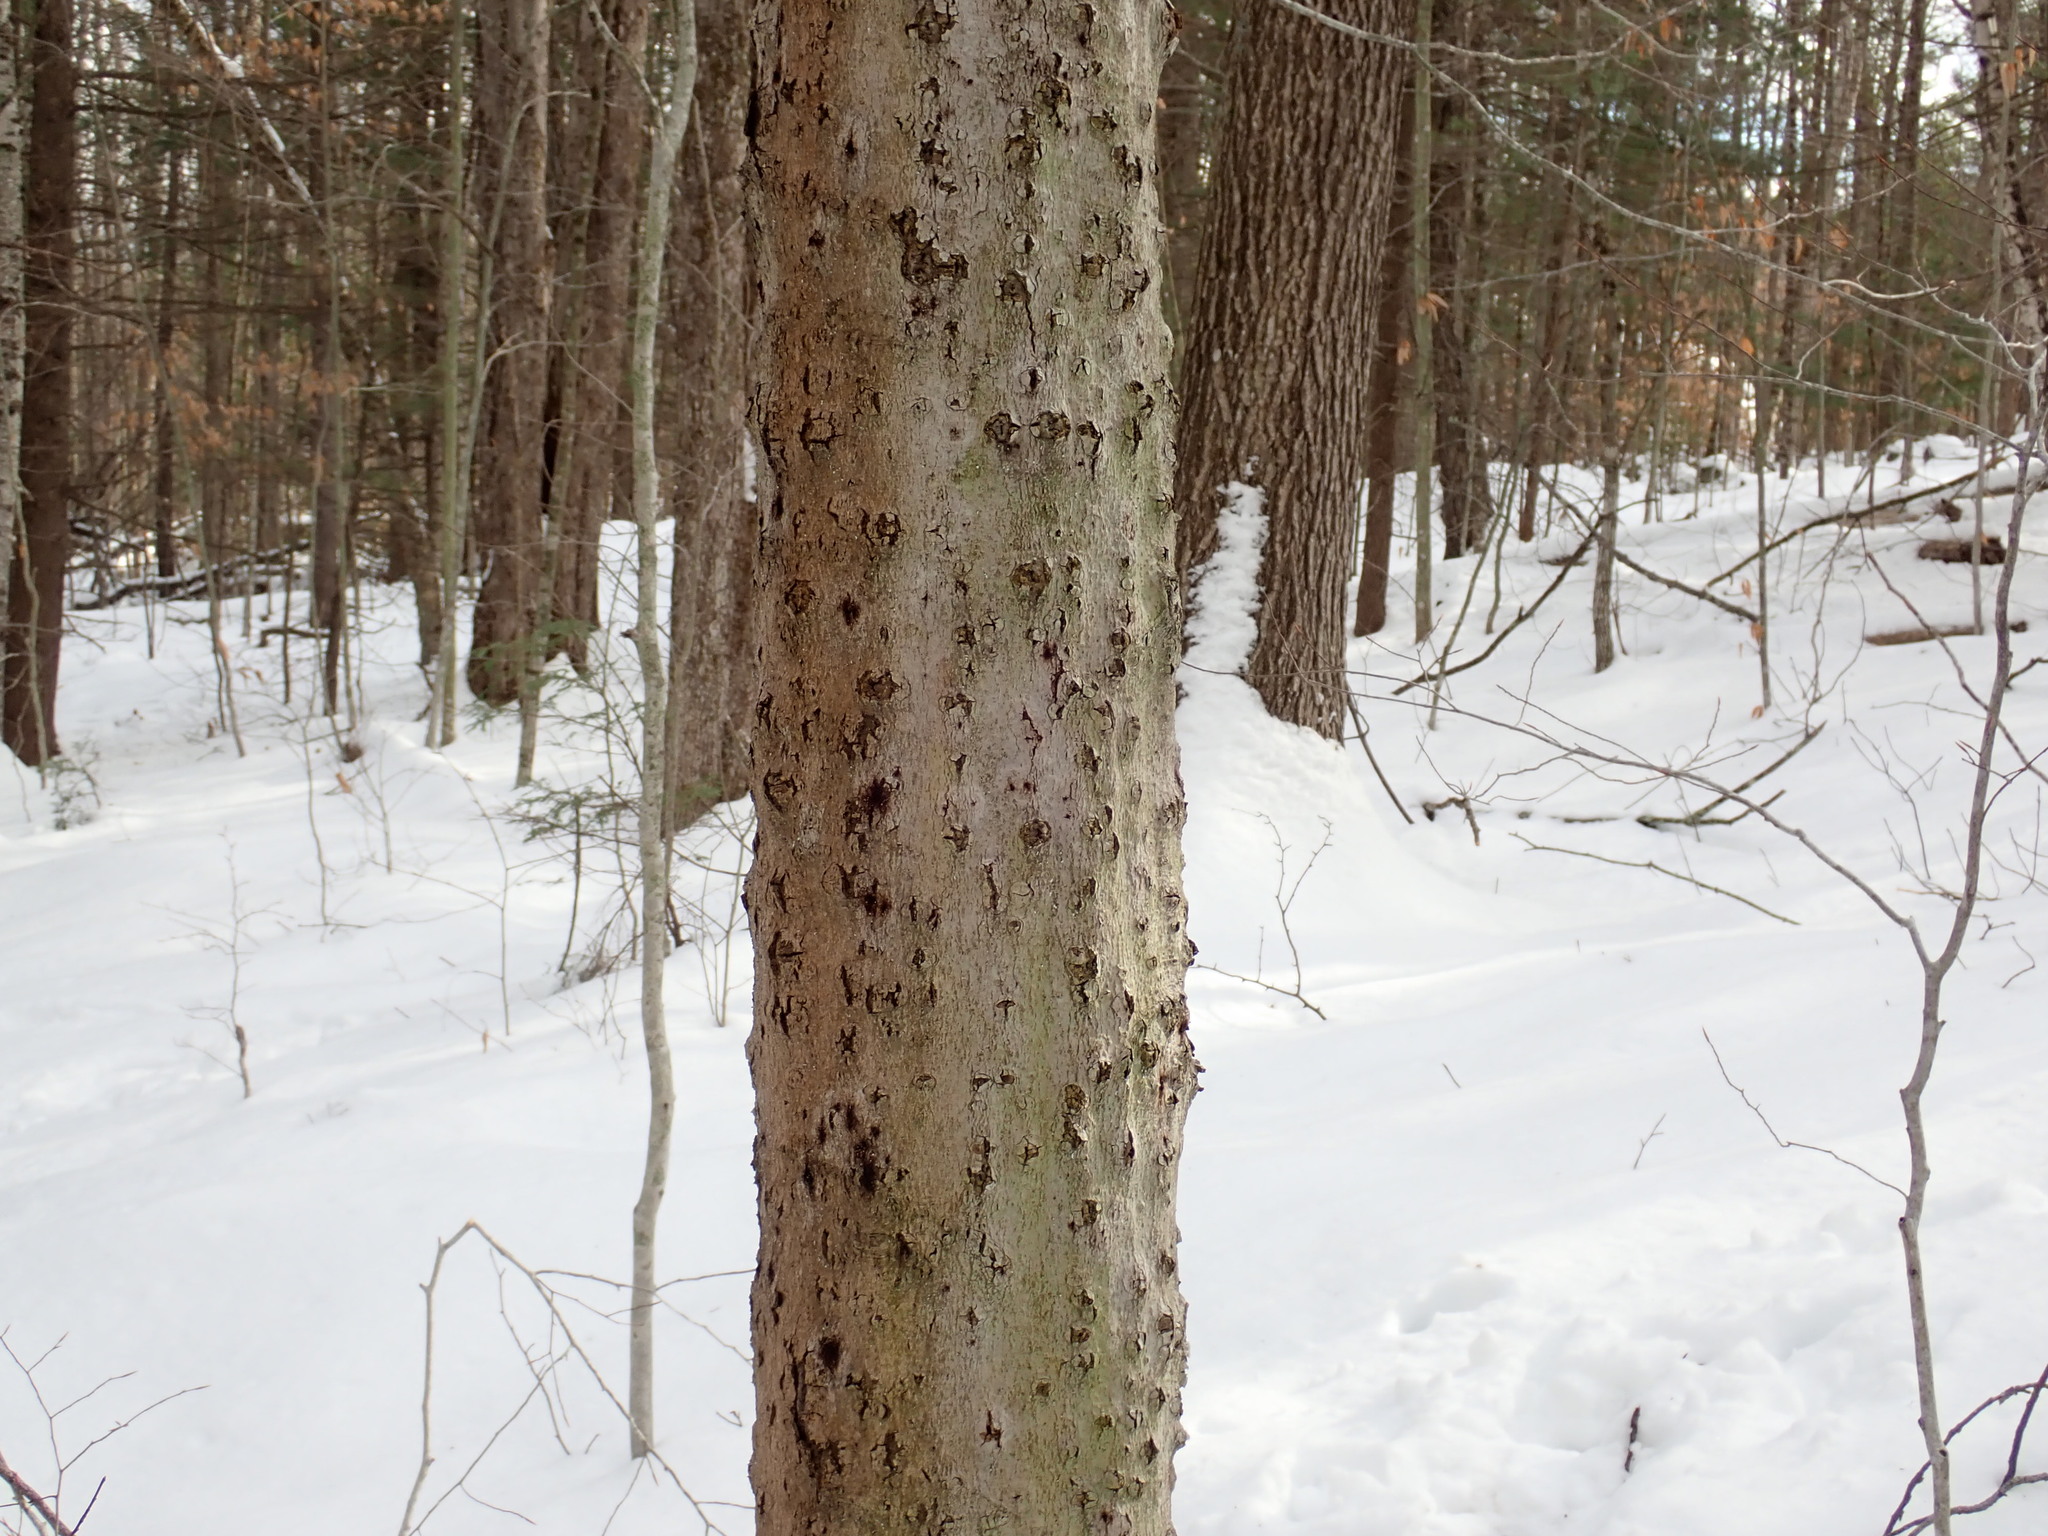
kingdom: Fungi
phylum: Ascomycota
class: Sordariomycetes
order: Hypocreales
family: Nectriaceae
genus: Neonectria
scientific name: Neonectria faginata
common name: Beech bark canker
